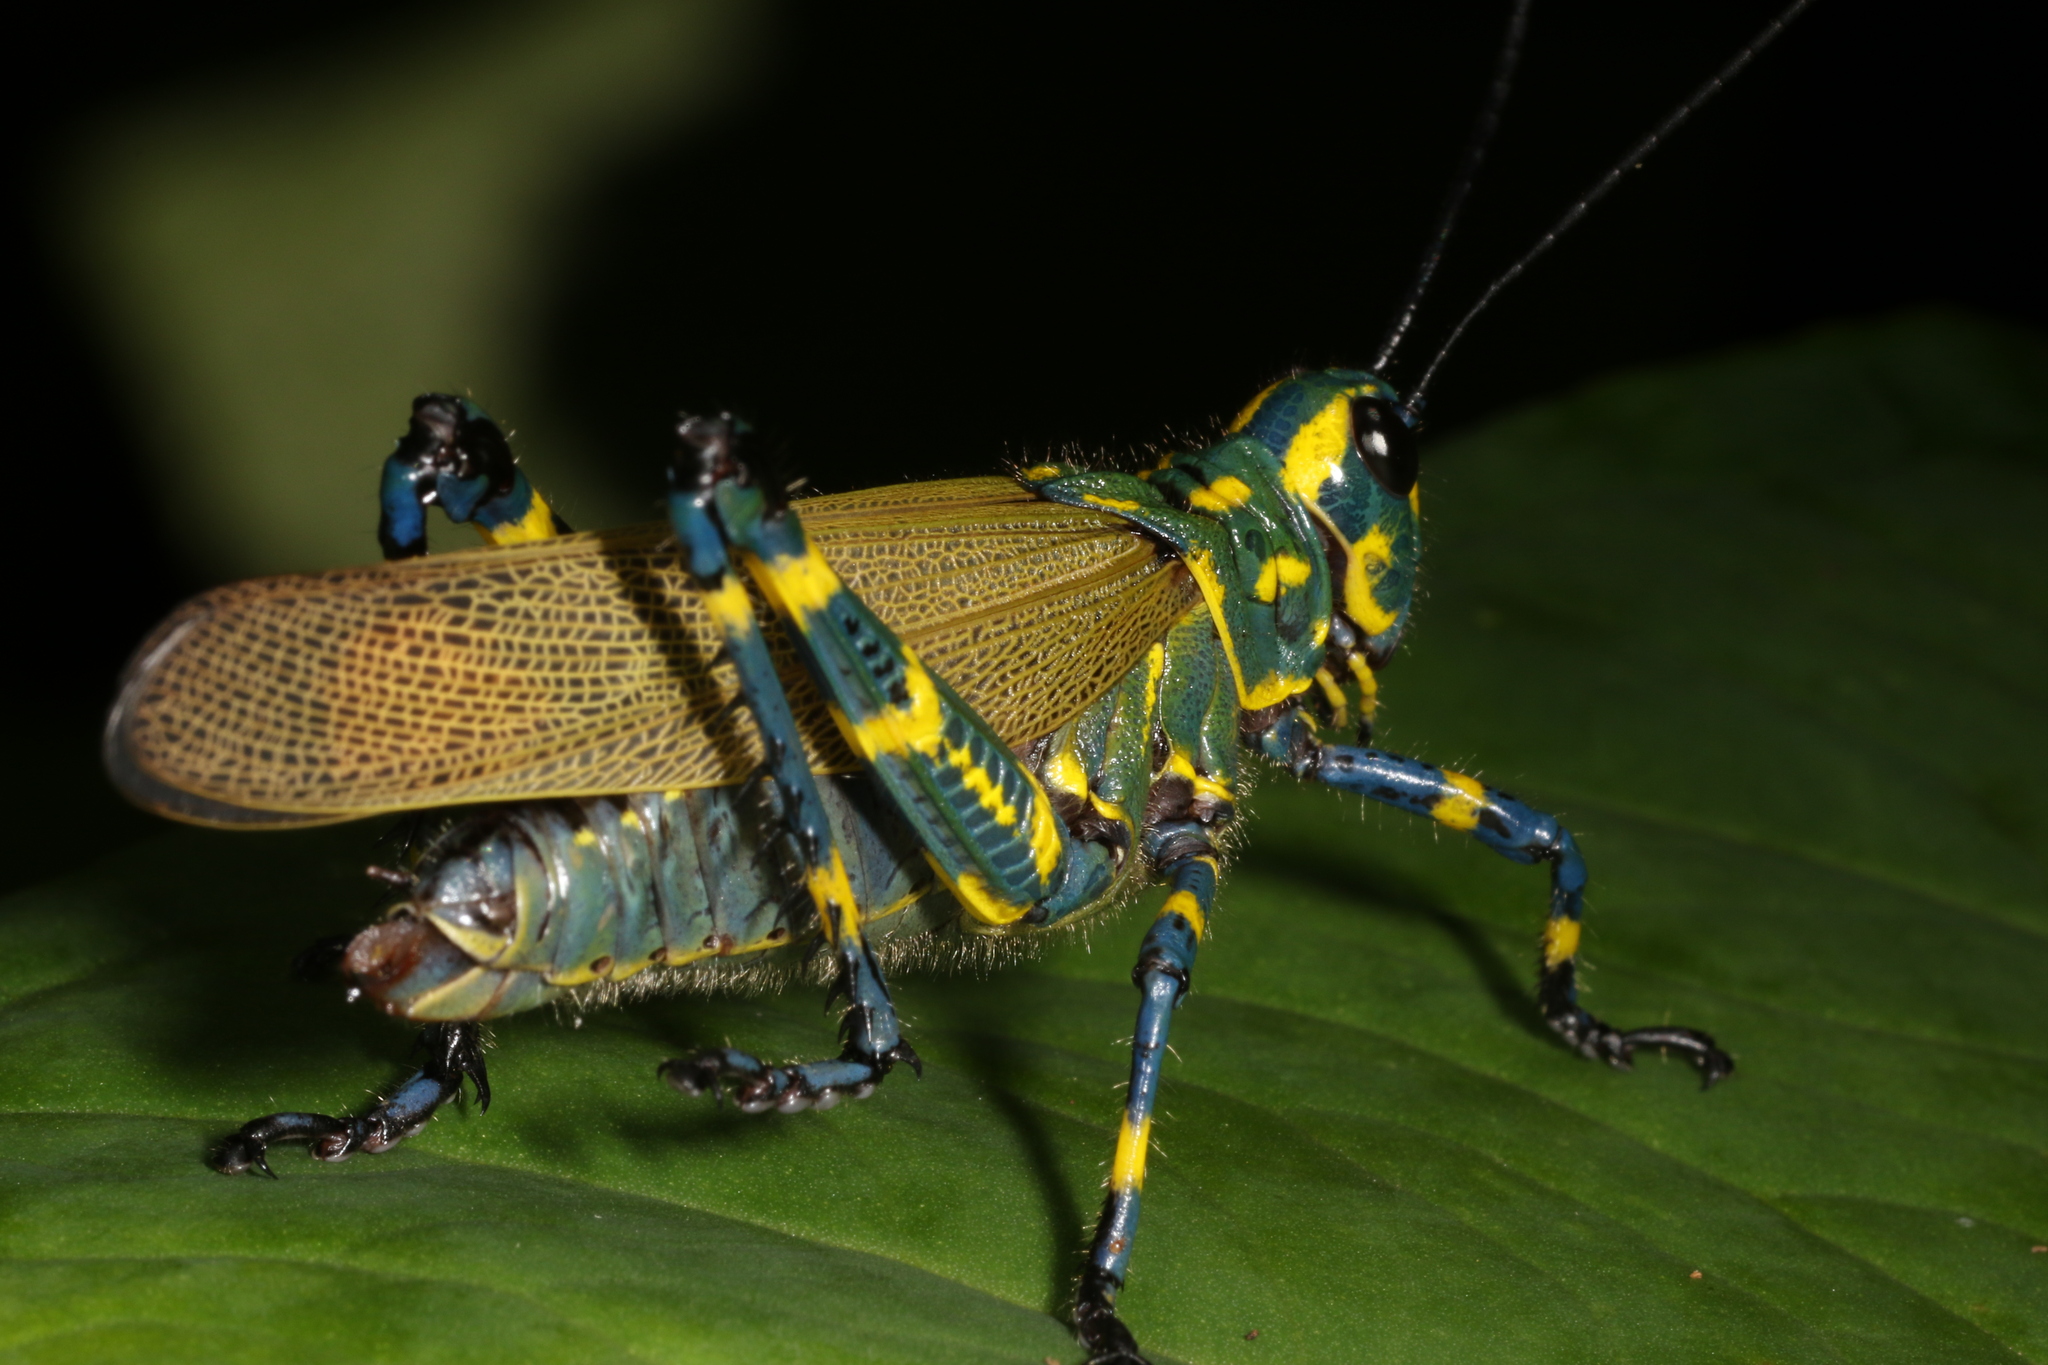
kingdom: Animalia
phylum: Arthropoda
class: Insecta
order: Orthoptera
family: Romaleidae
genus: Chromacris
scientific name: Chromacris speciosa
